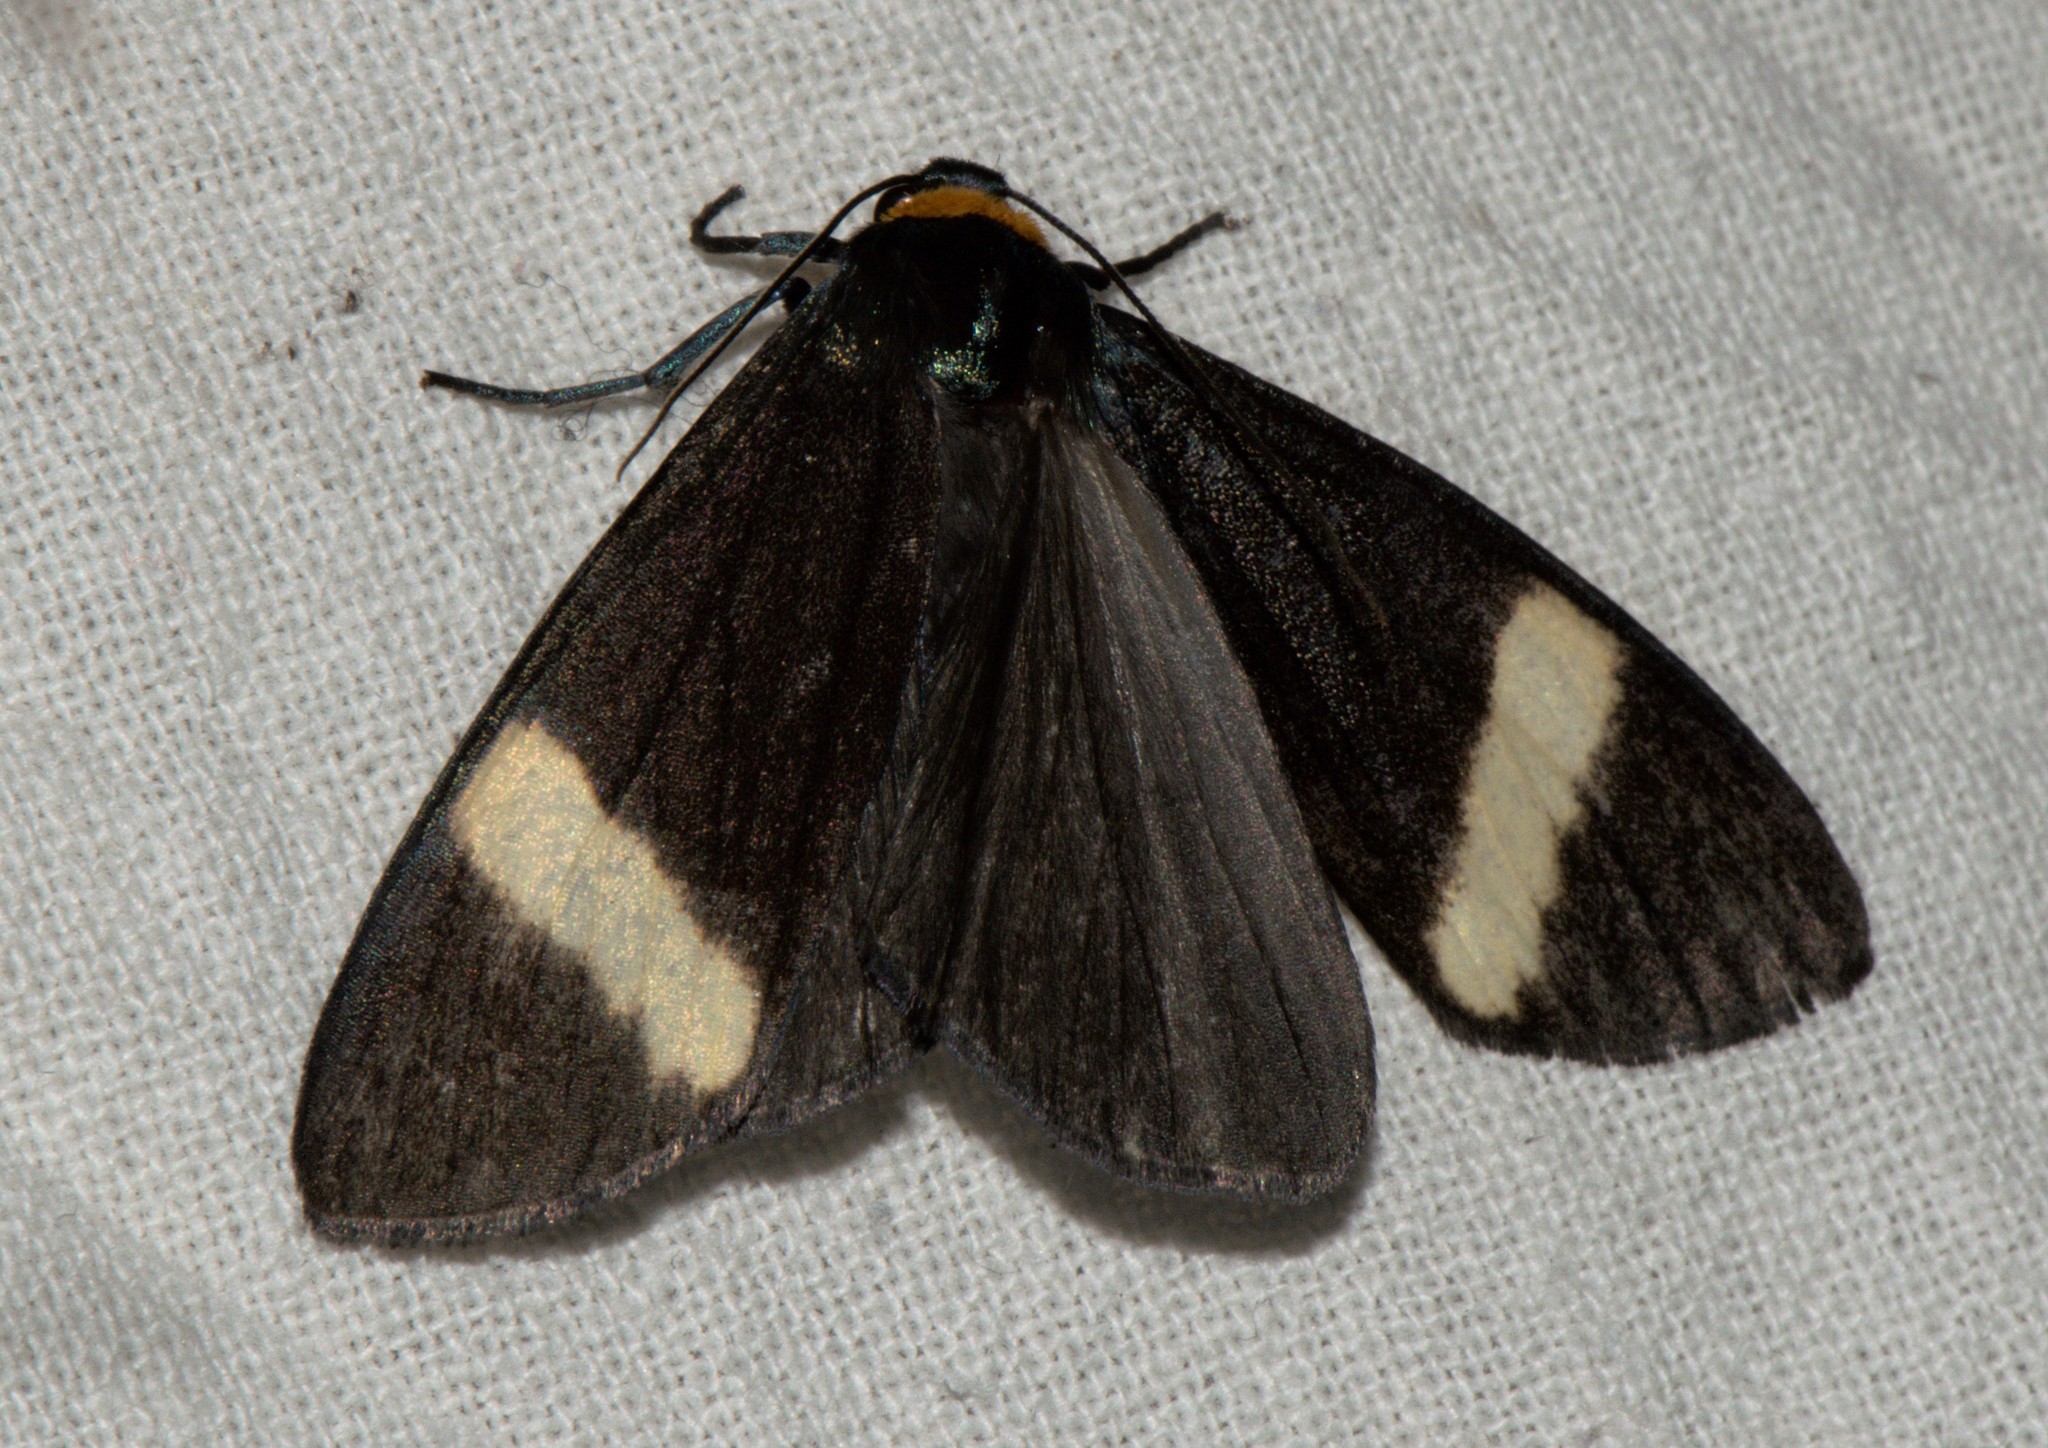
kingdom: Animalia
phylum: Arthropoda
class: Insecta
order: Lepidoptera
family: Erebidae
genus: Macrobrochis
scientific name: Macrobrochis albifascia
